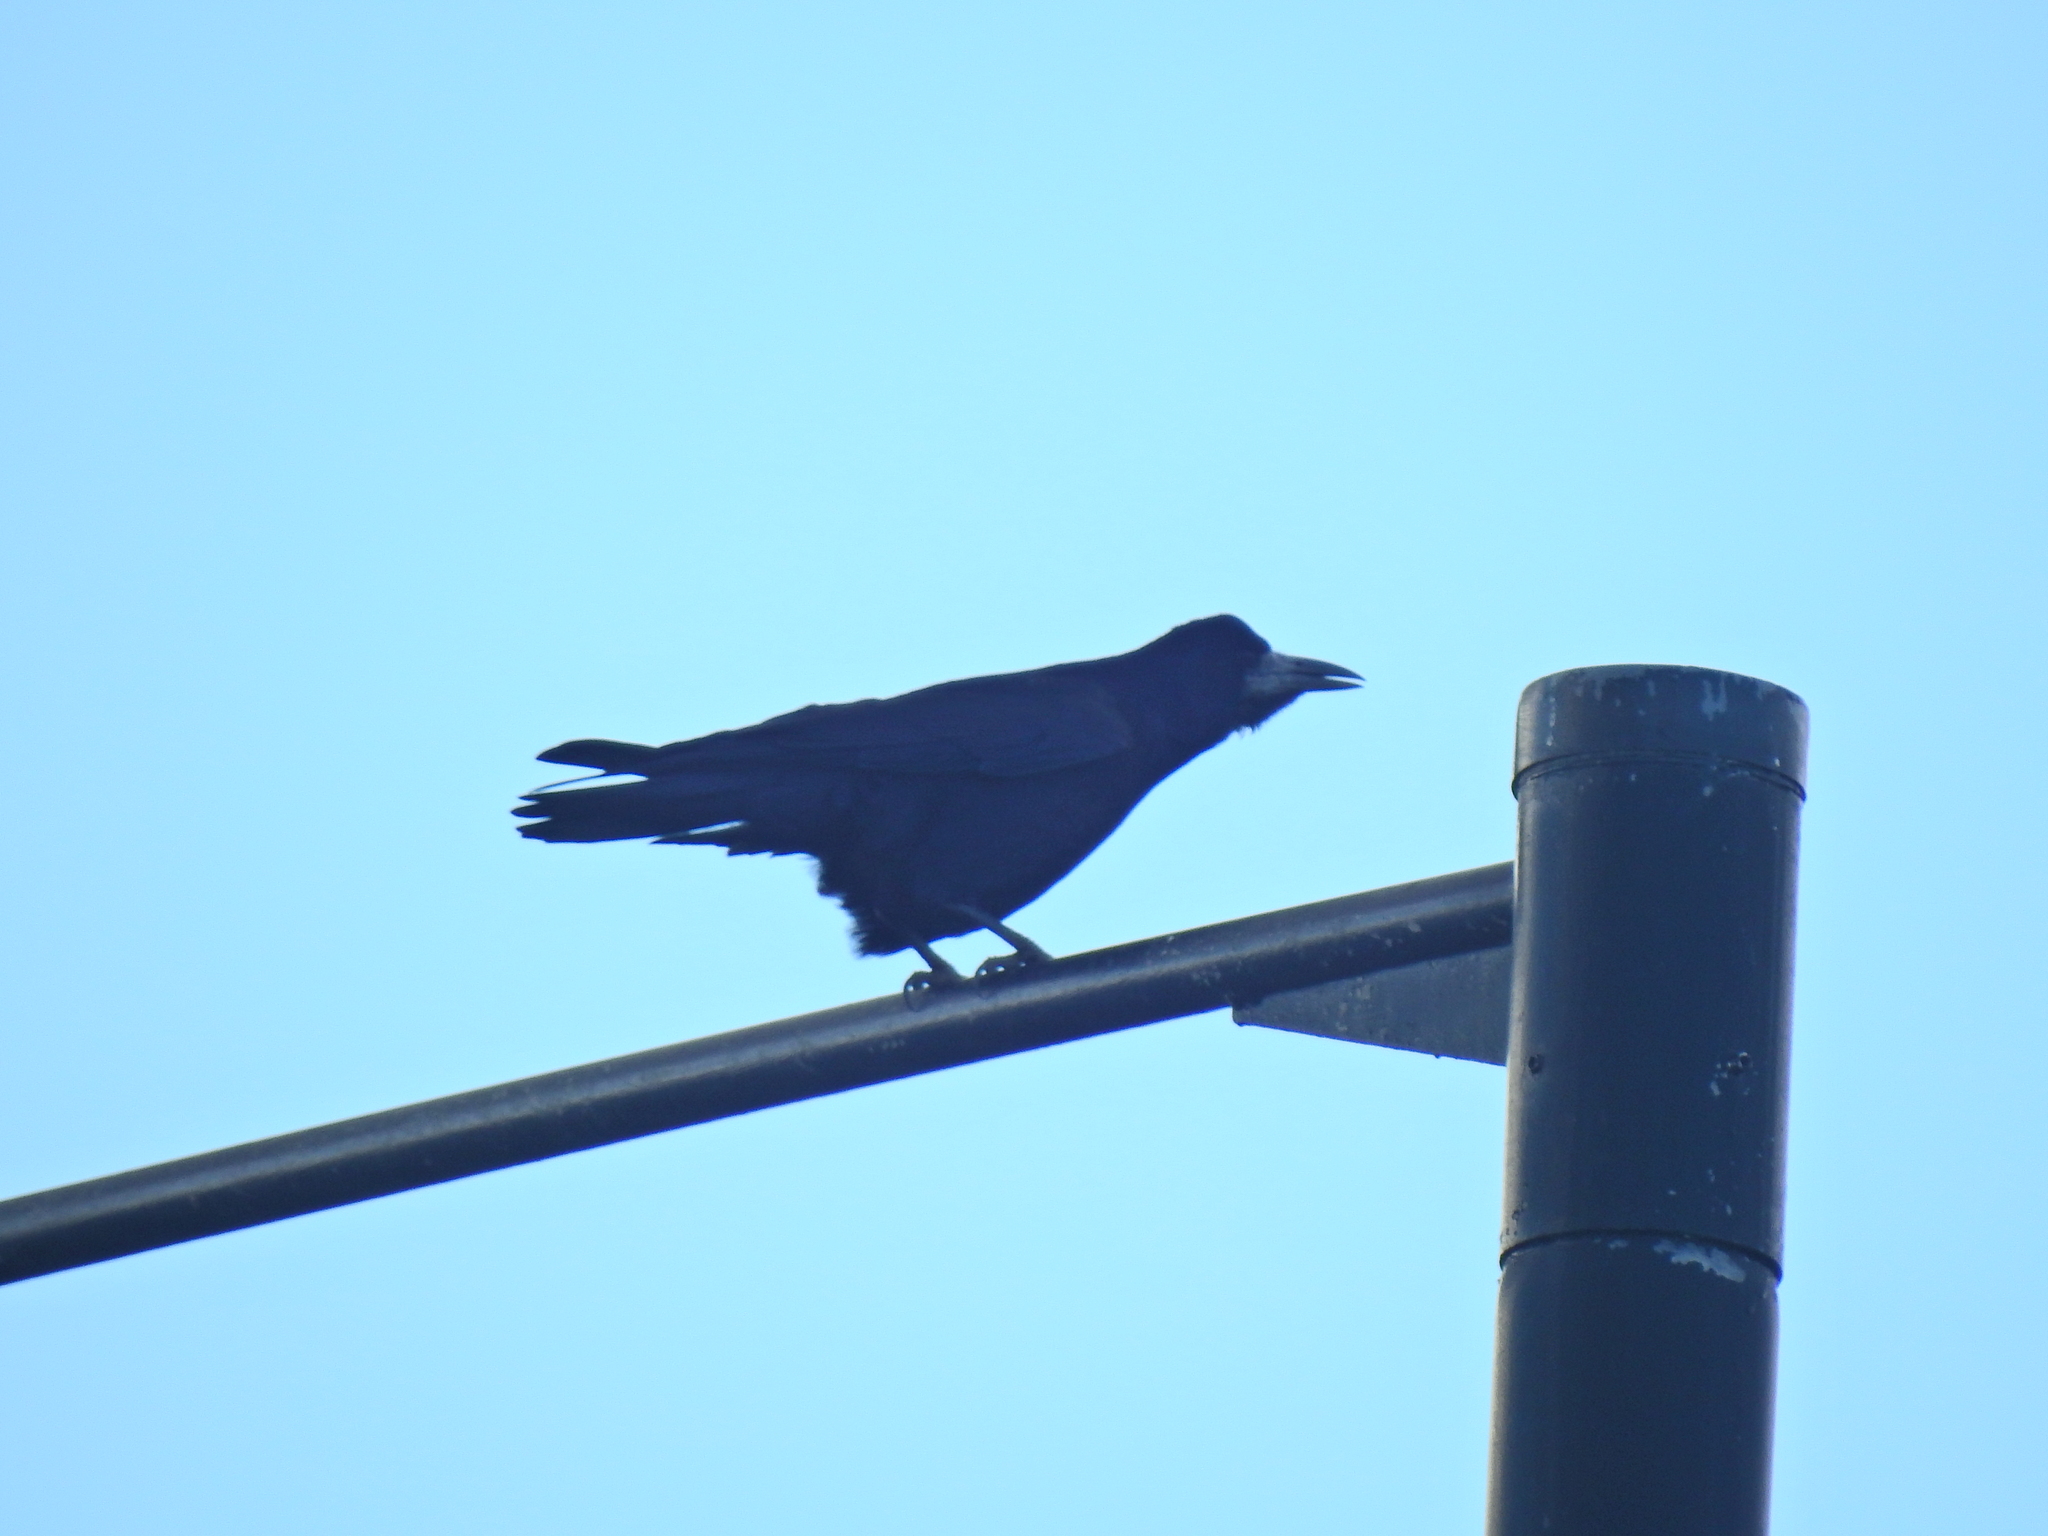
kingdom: Animalia
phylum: Chordata
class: Aves
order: Passeriformes
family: Corvidae
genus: Corvus
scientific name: Corvus frugilegus
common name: Rook
